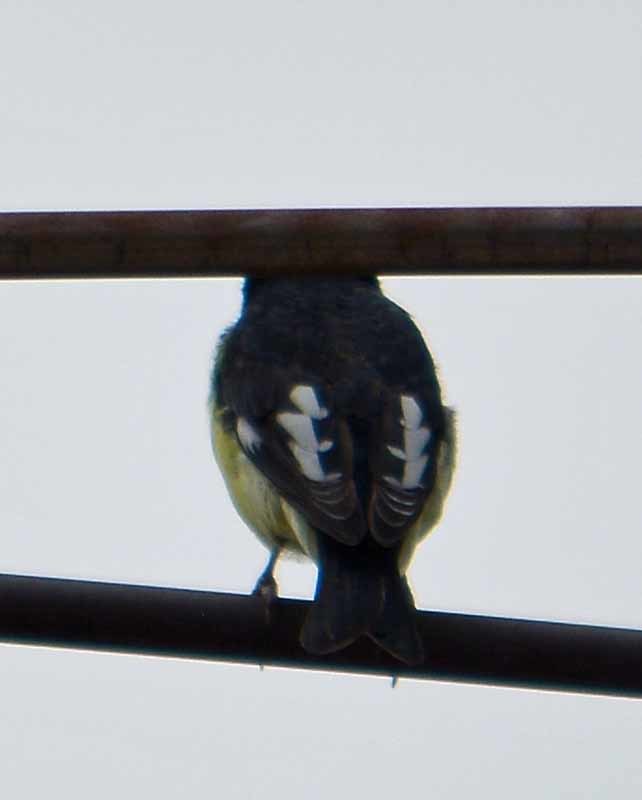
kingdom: Animalia
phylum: Chordata
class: Aves
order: Passeriformes
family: Fringillidae
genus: Spinus
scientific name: Spinus psaltria
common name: Lesser goldfinch
